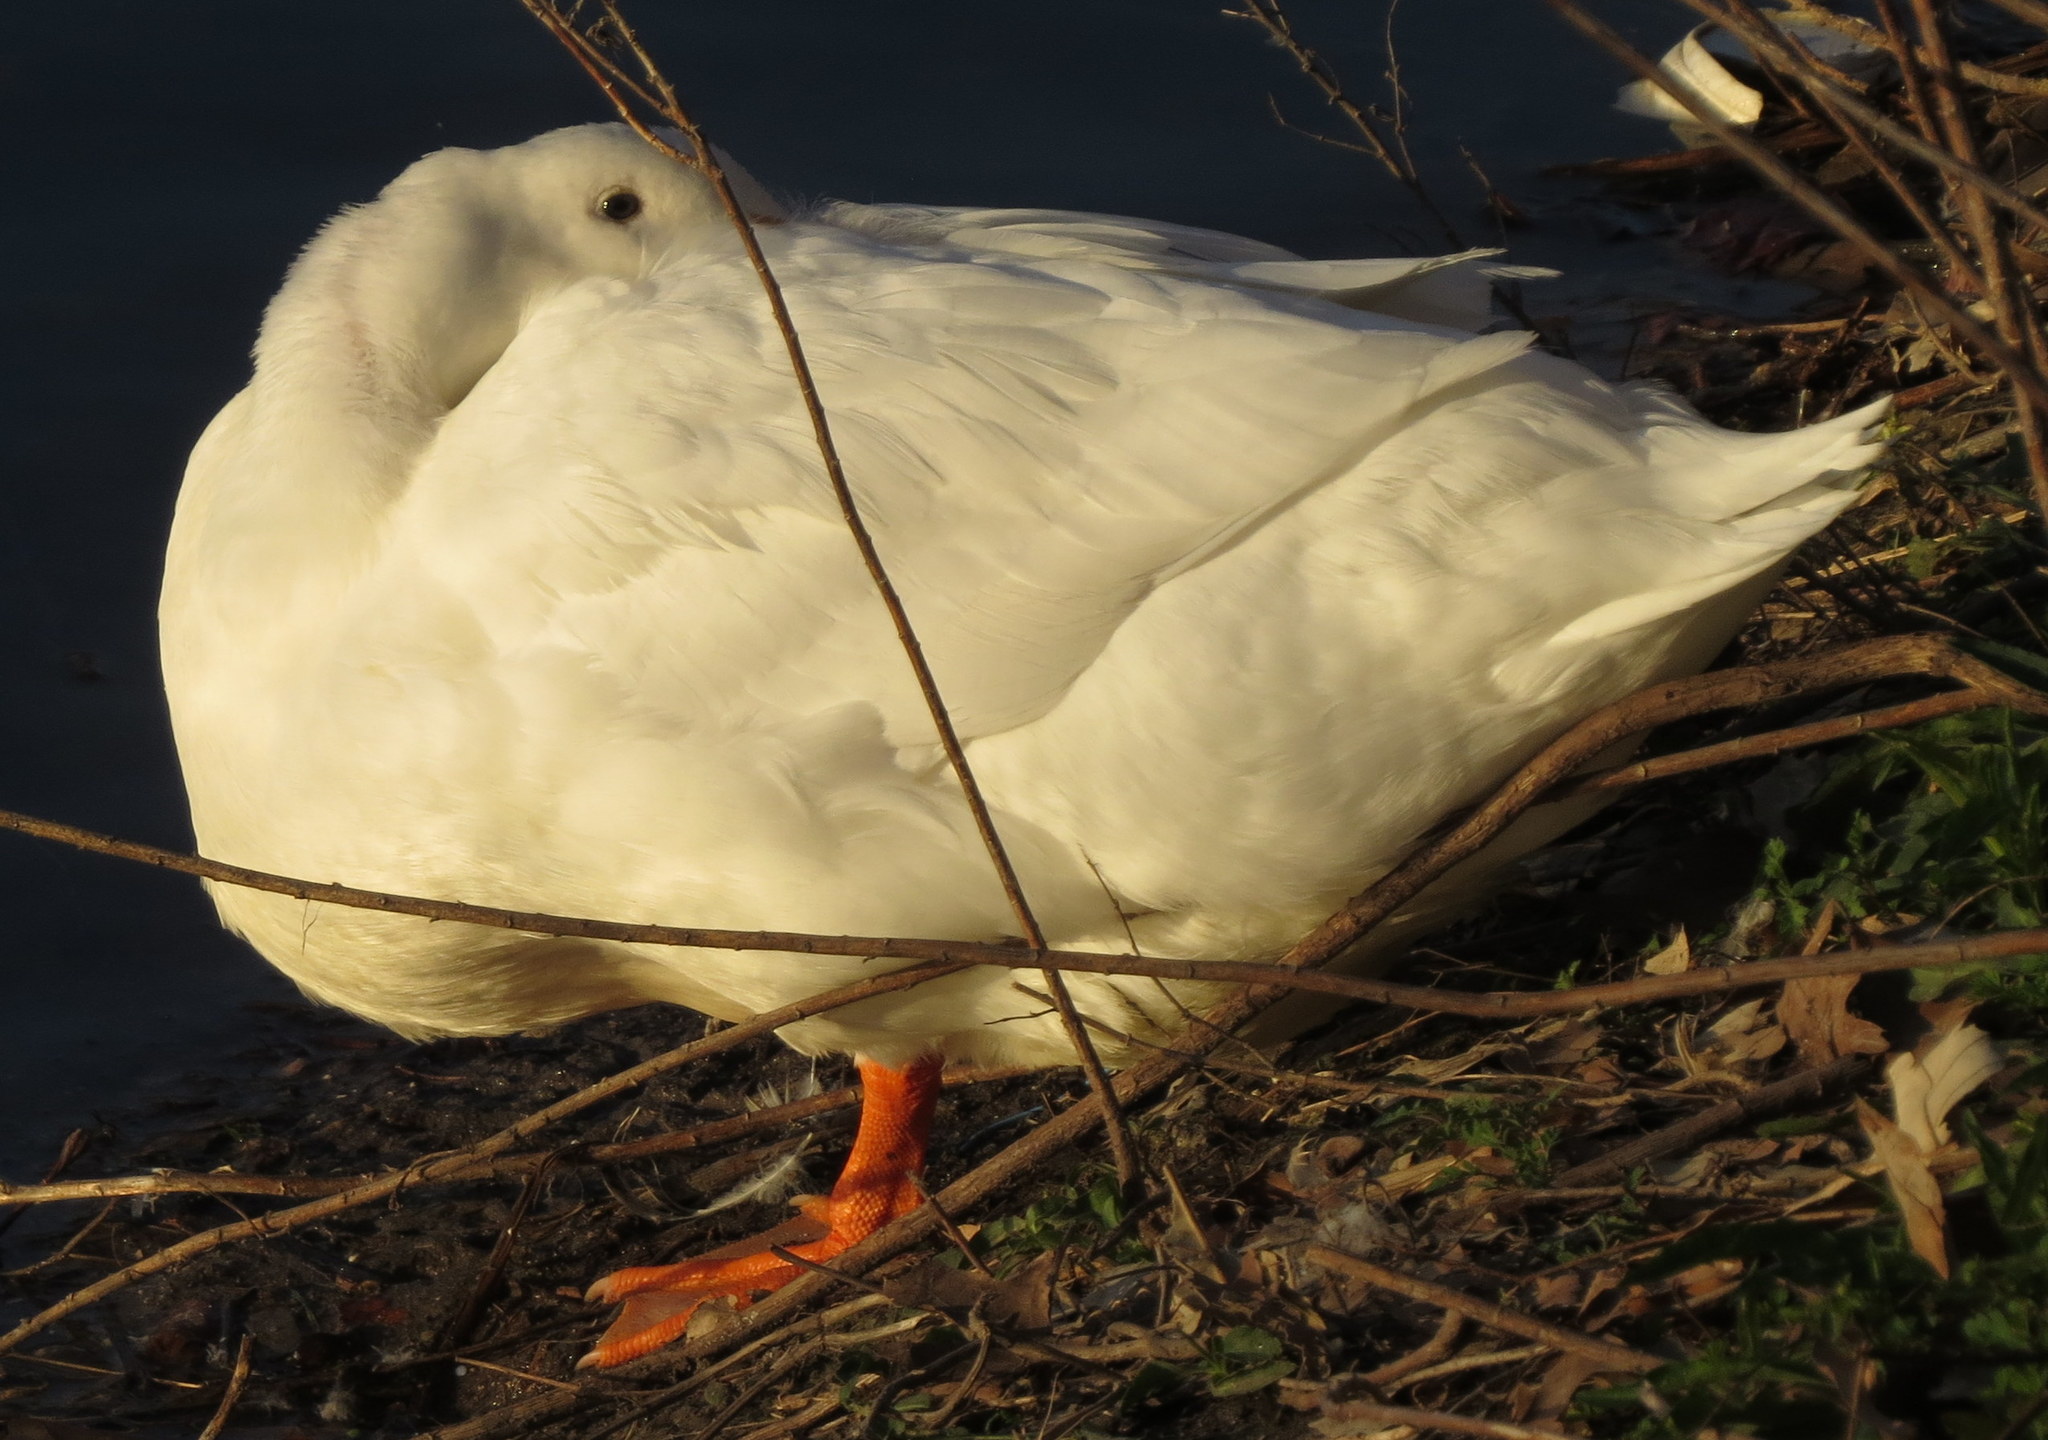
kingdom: Animalia
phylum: Chordata
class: Aves
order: Anseriformes
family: Anatidae
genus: Anas
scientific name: Anas platyrhynchos
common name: Mallard
